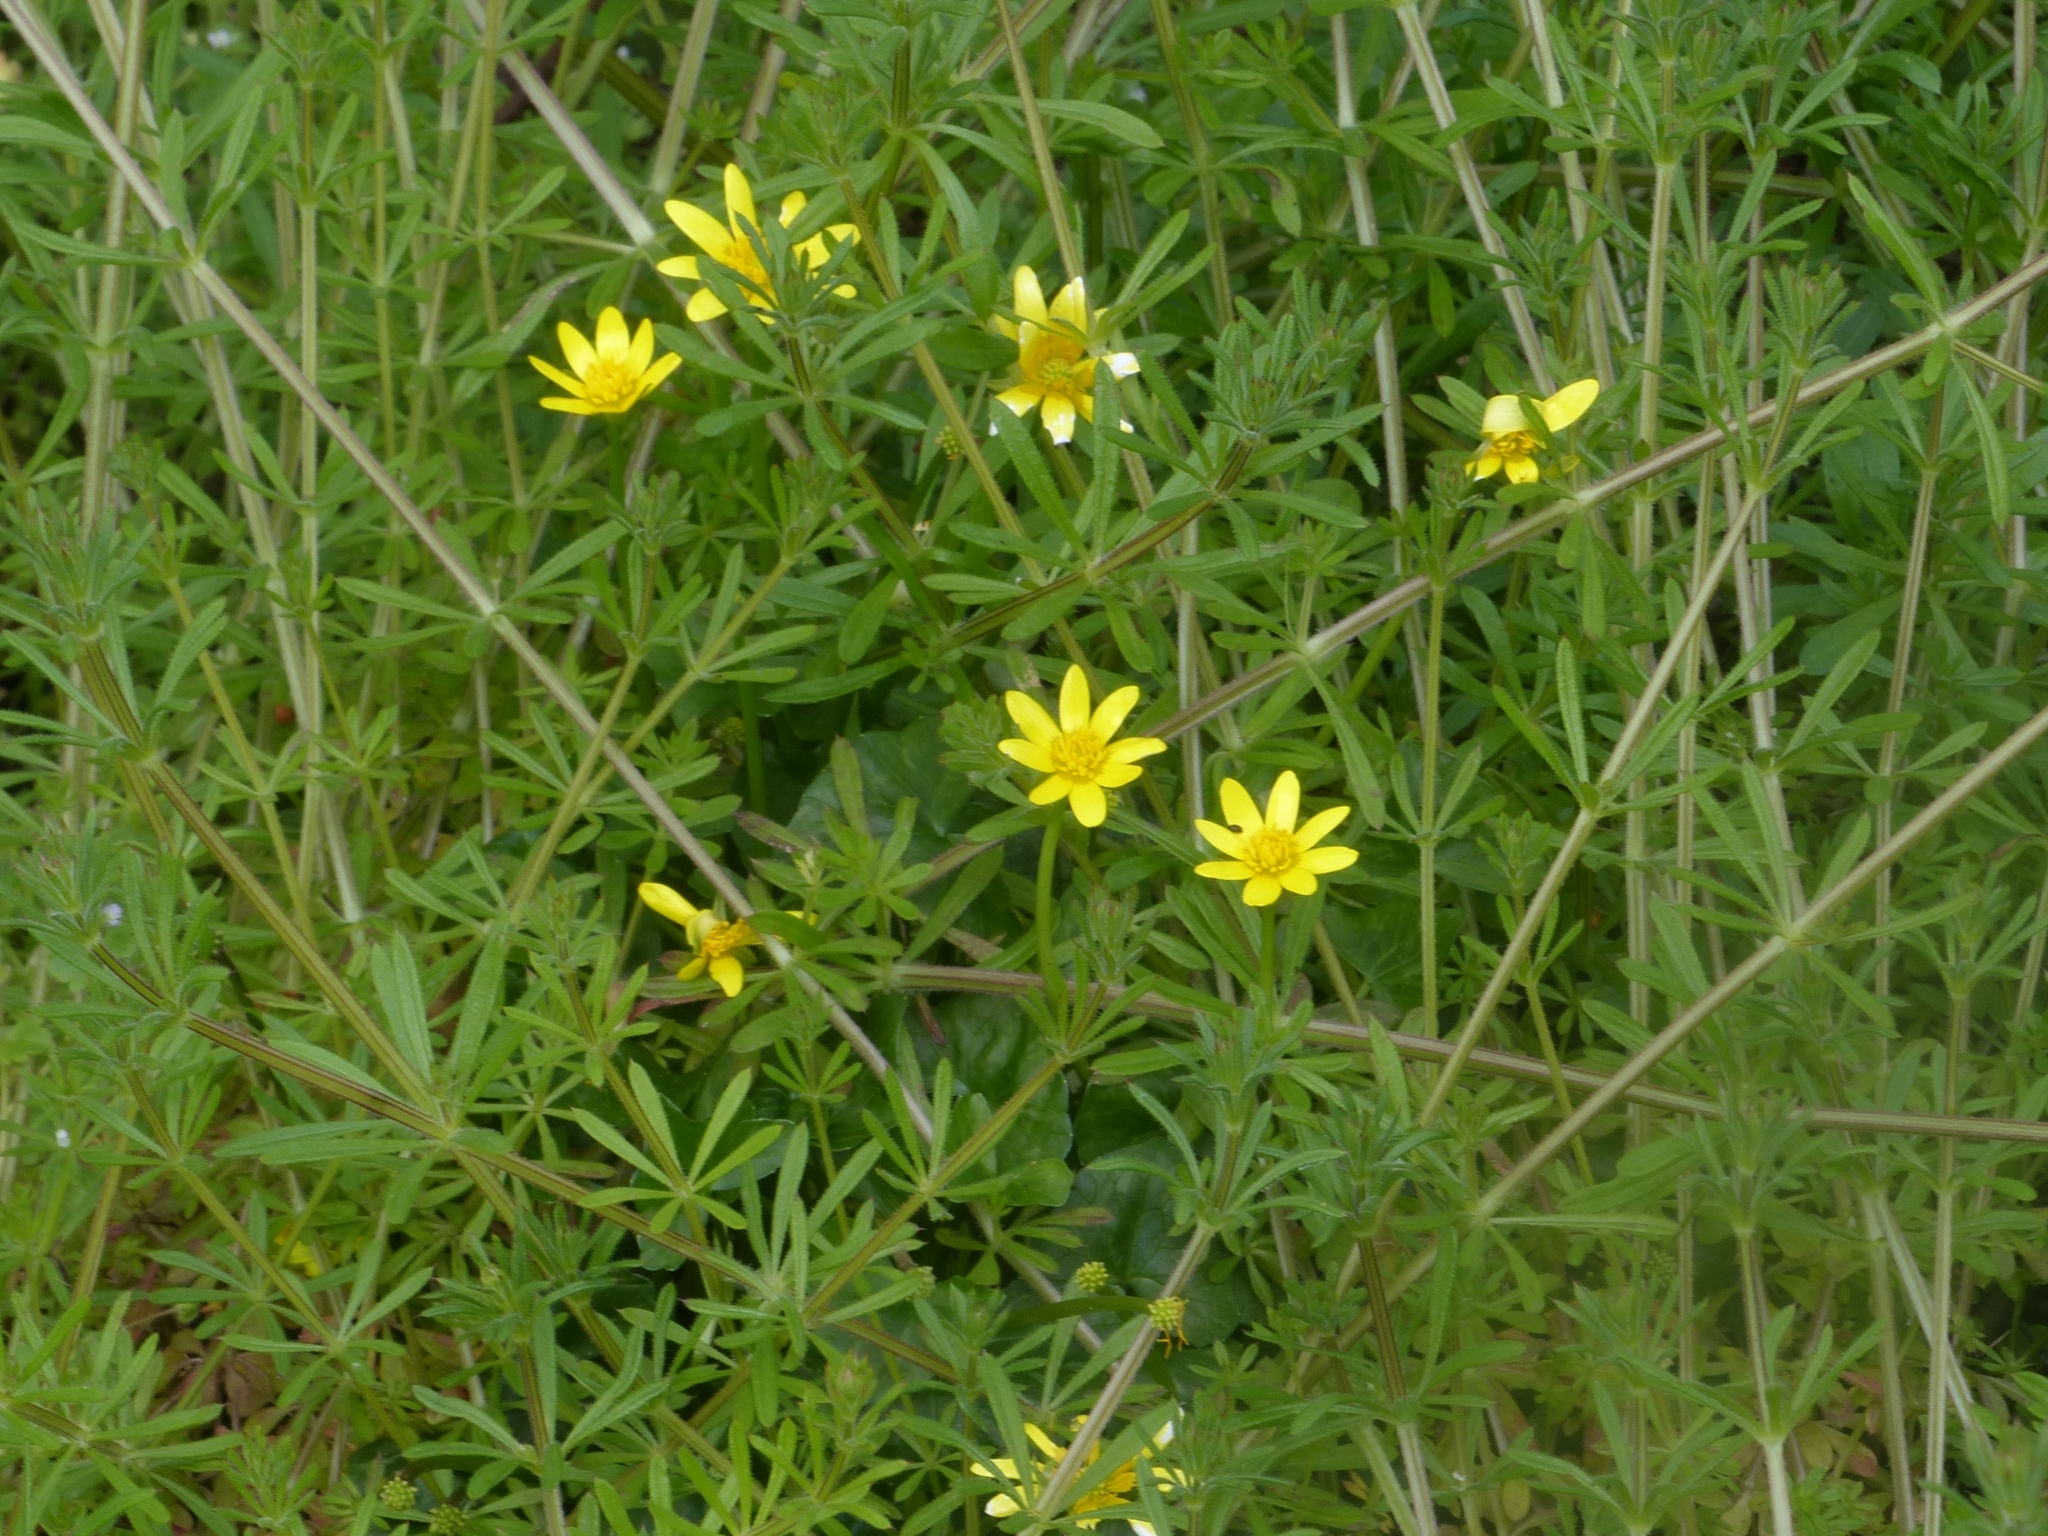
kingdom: Plantae
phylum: Tracheophyta
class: Magnoliopsida
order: Ranunculales
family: Ranunculaceae
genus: Ficaria
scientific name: Ficaria verna
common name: Lesser celandine
